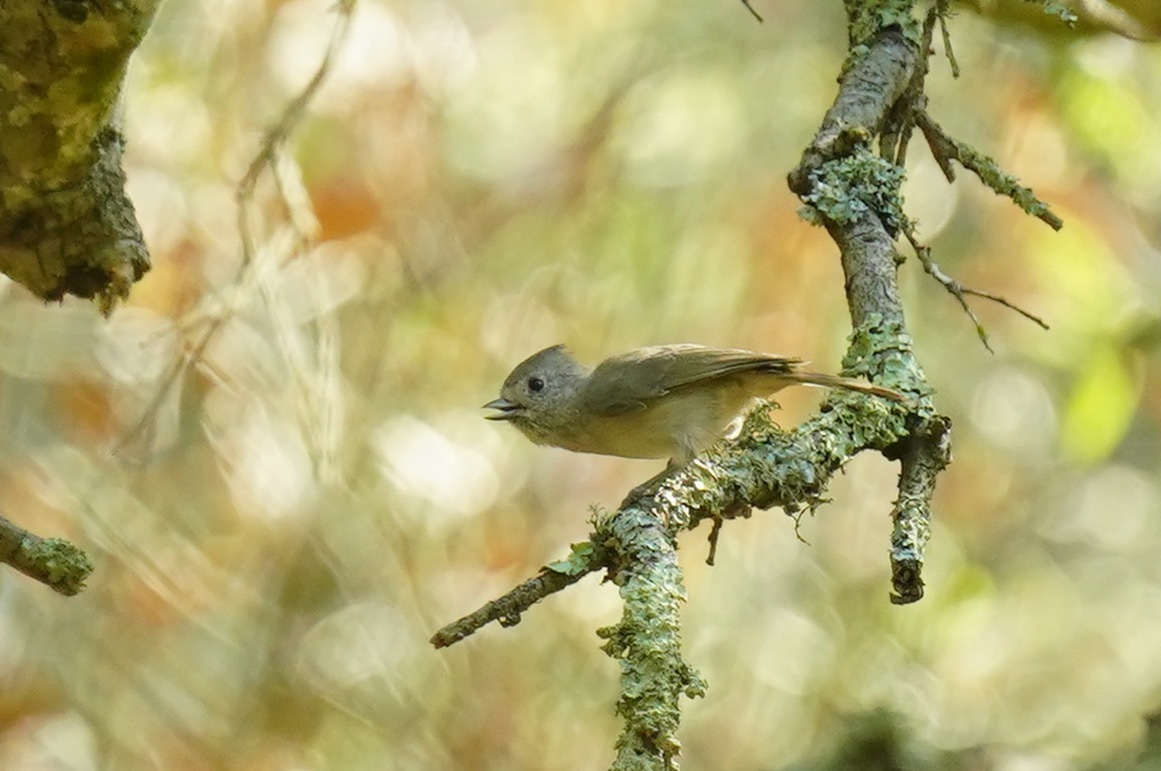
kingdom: Animalia
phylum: Chordata
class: Aves
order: Passeriformes
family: Paridae
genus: Baeolophus
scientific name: Baeolophus inornatus
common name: Oak titmouse
